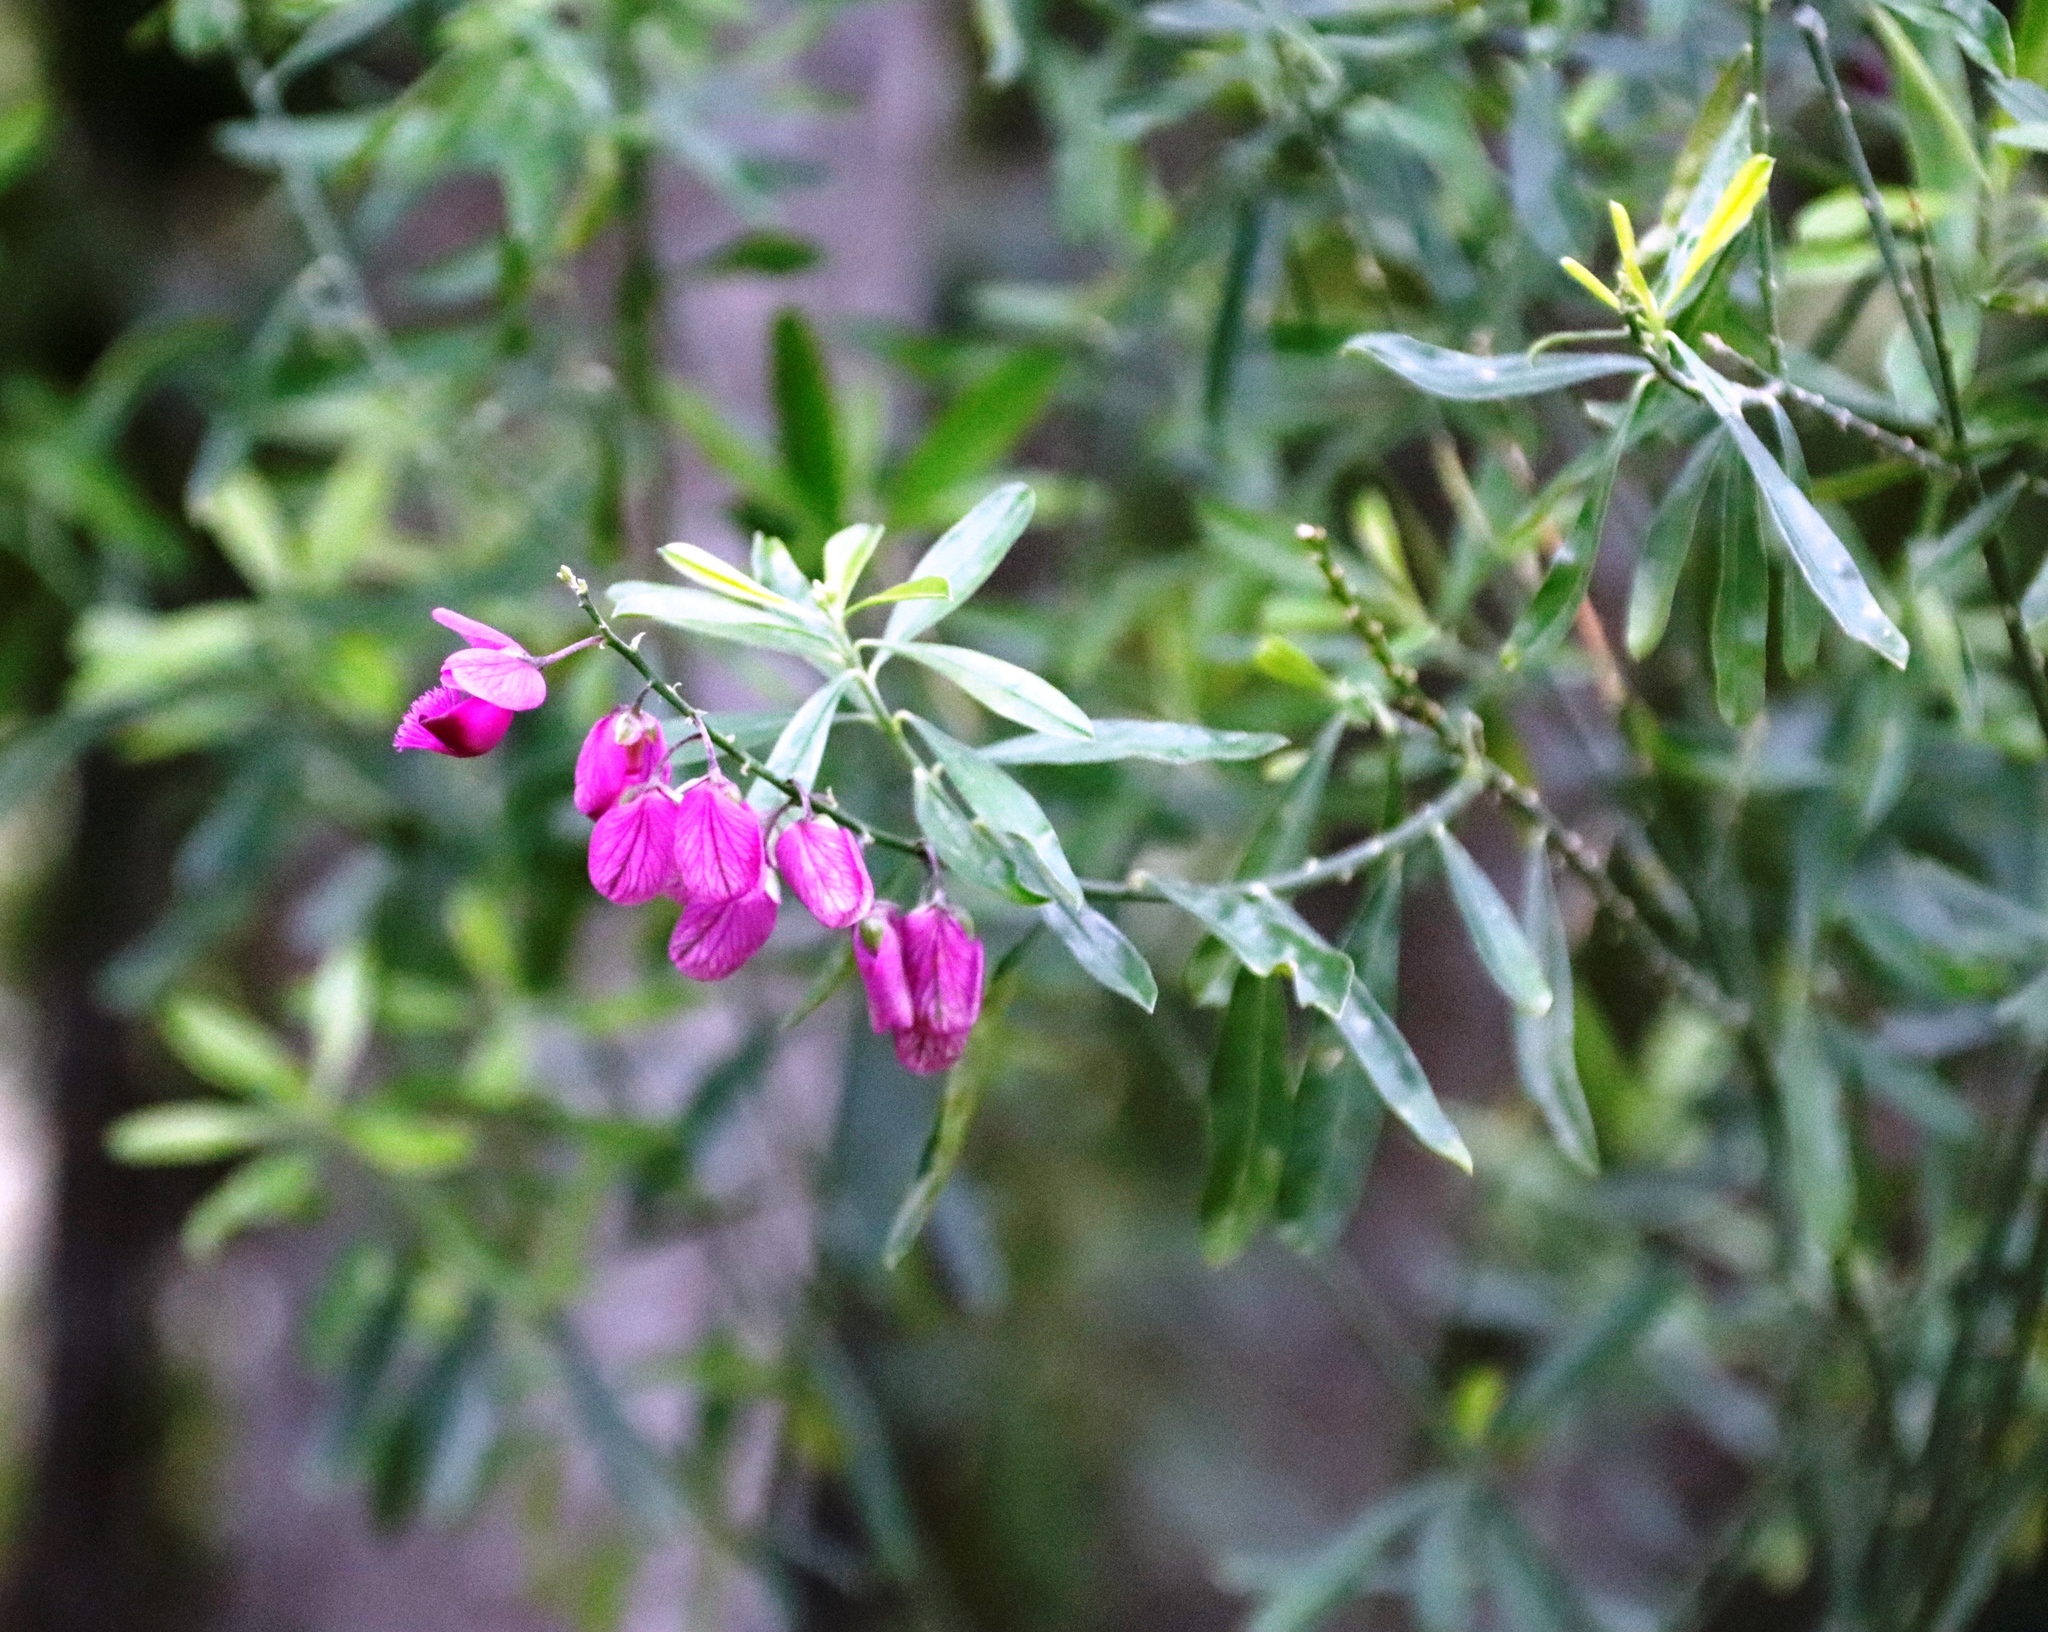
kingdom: Plantae
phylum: Tracheophyta
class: Magnoliopsida
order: Fabales
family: Polygalaceae
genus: Polygala
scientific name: Polygala myrtifolia
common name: Myrtle-leaf milkwort
